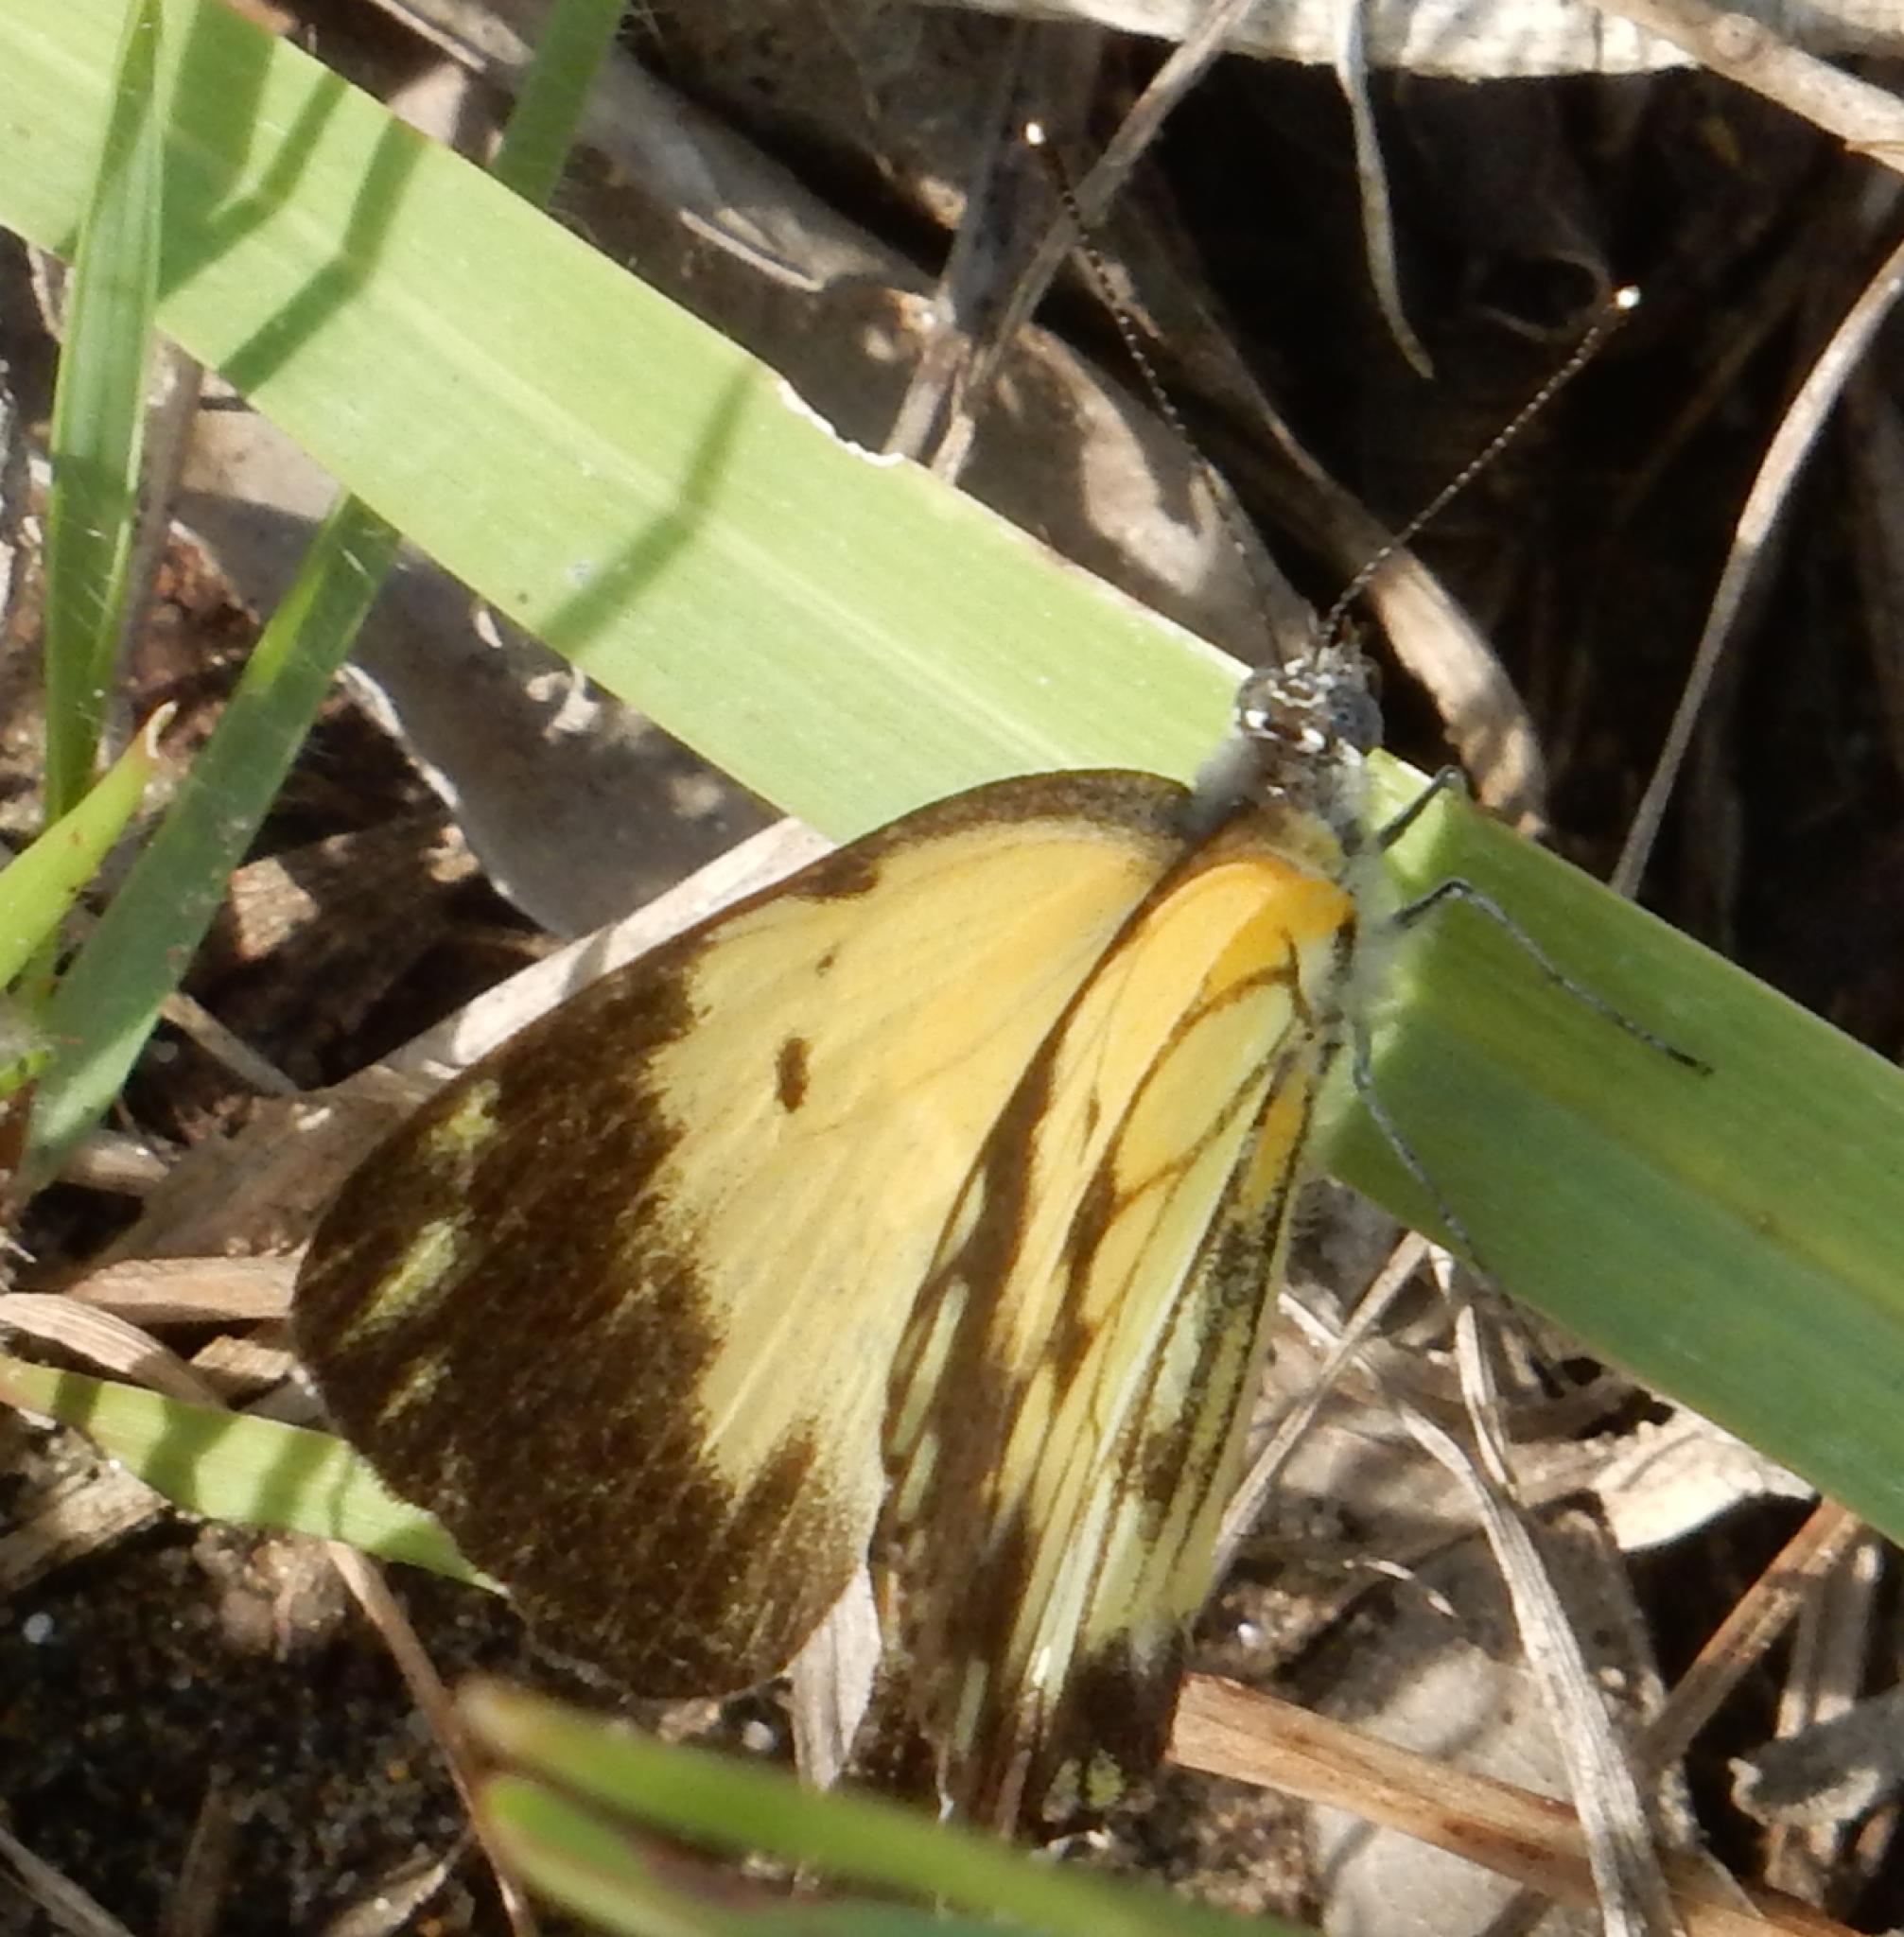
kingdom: Animalia
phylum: Arthropoda
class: Insecta
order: Lepidoptera
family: Pieridae
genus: Belenois
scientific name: Belenois creona
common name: African caper white
